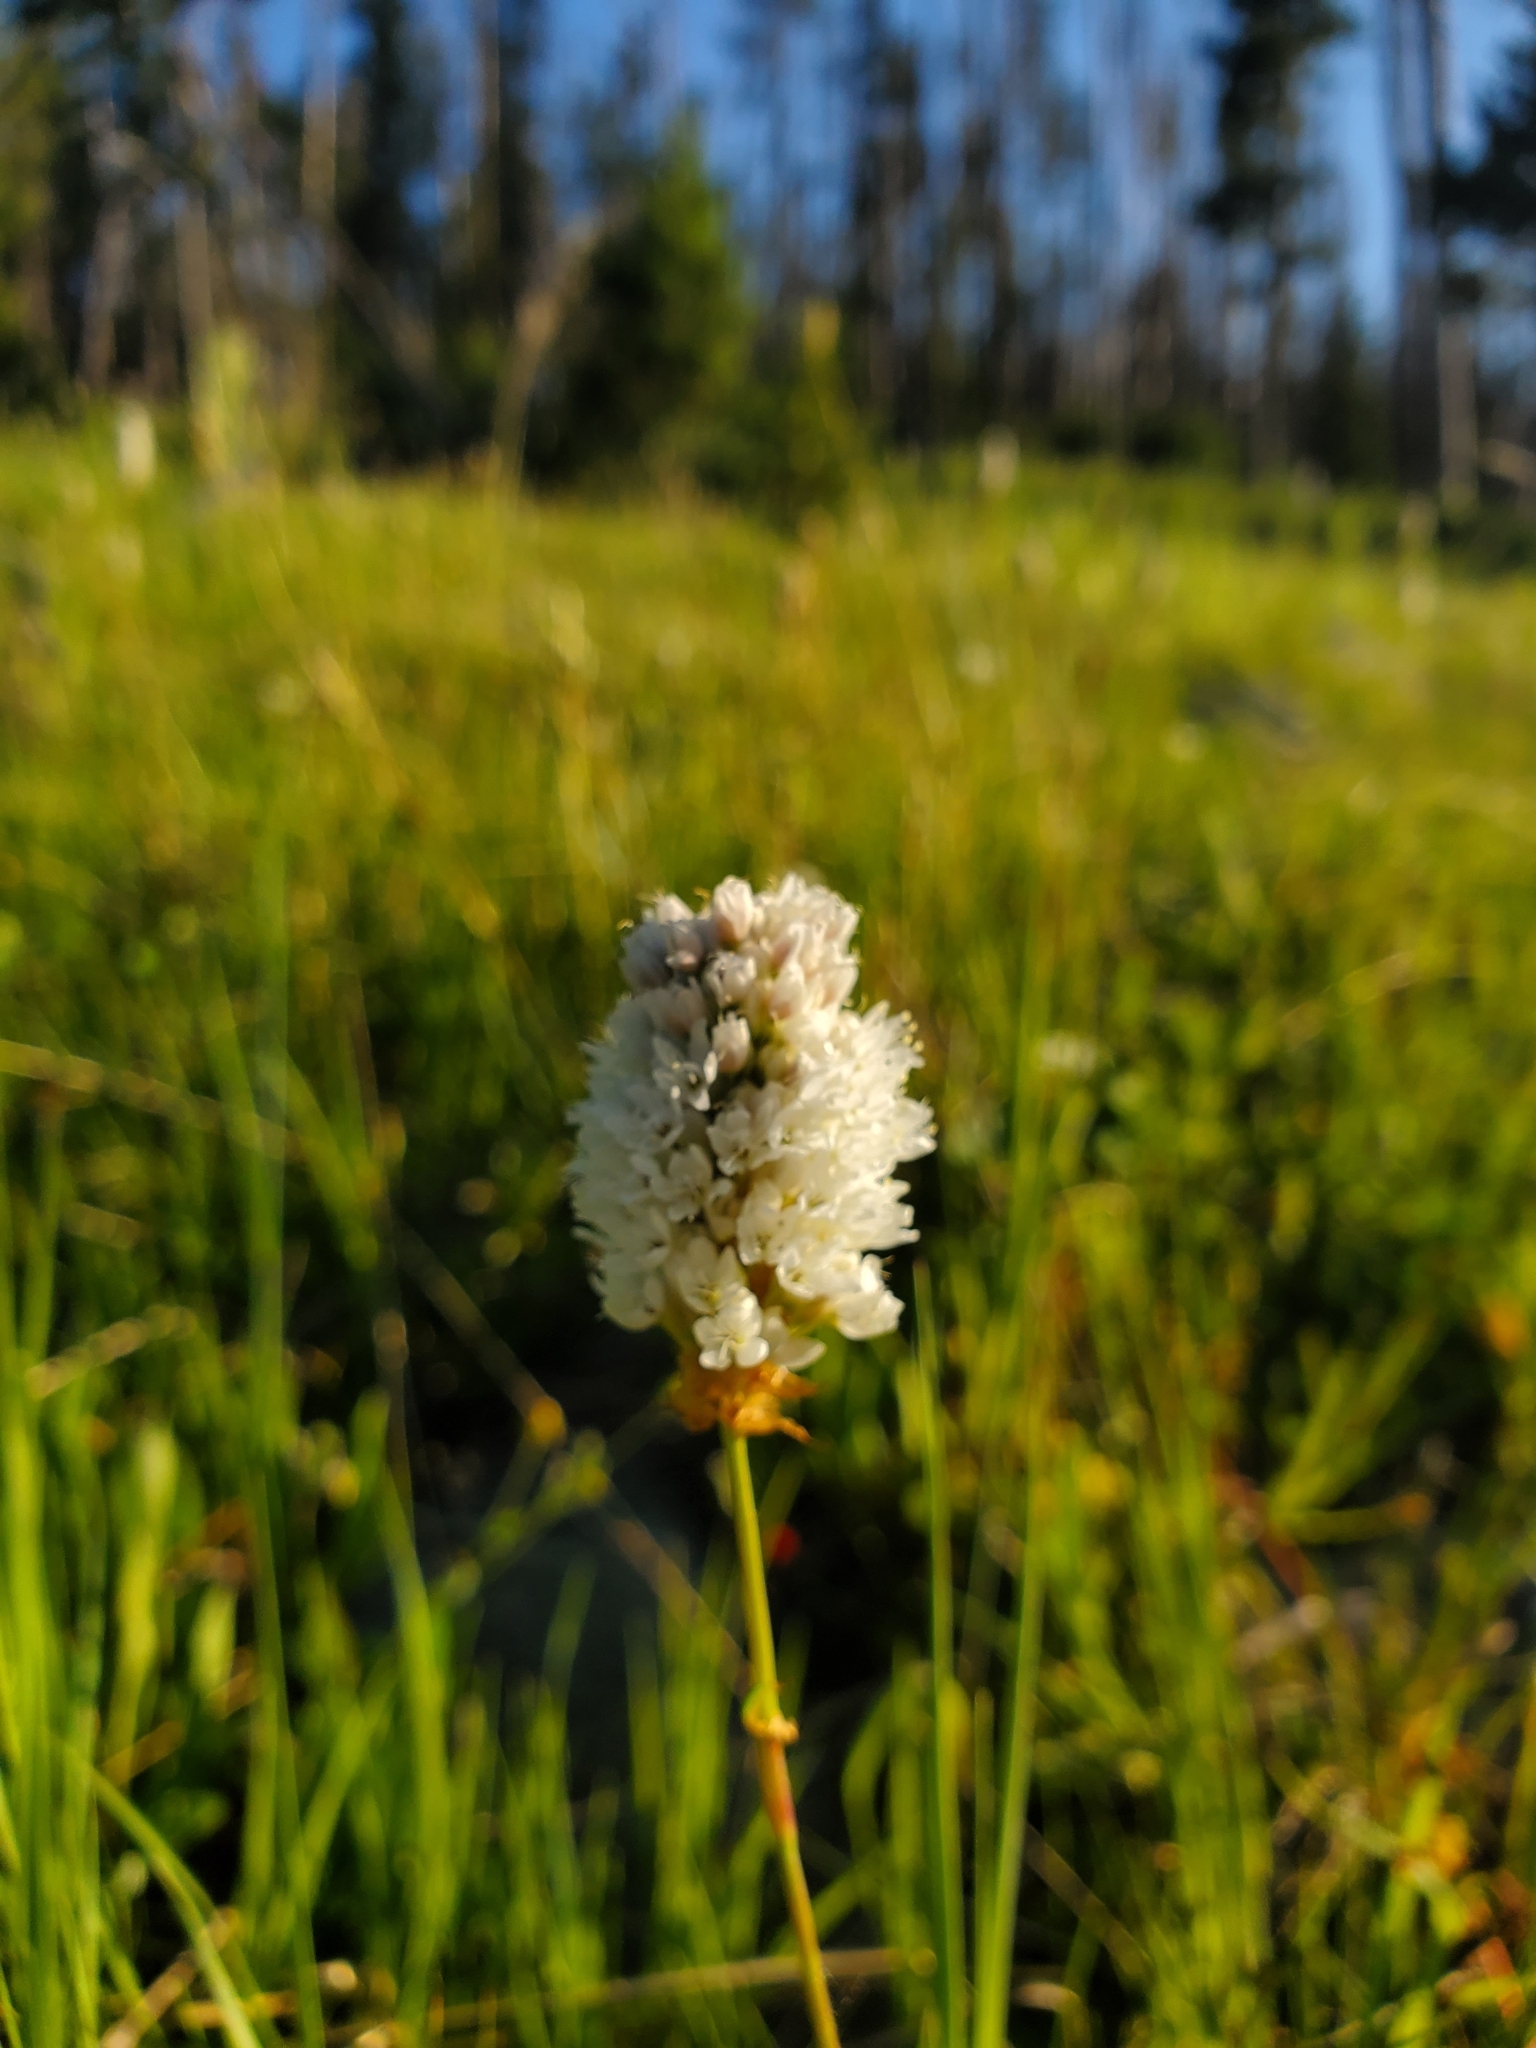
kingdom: Plantae
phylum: Tracheophyta
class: Magnoliopsida
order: Caryophyllales
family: Polygonaceae
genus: Bistorta
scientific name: Bistorta bistortoides
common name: American bistort
